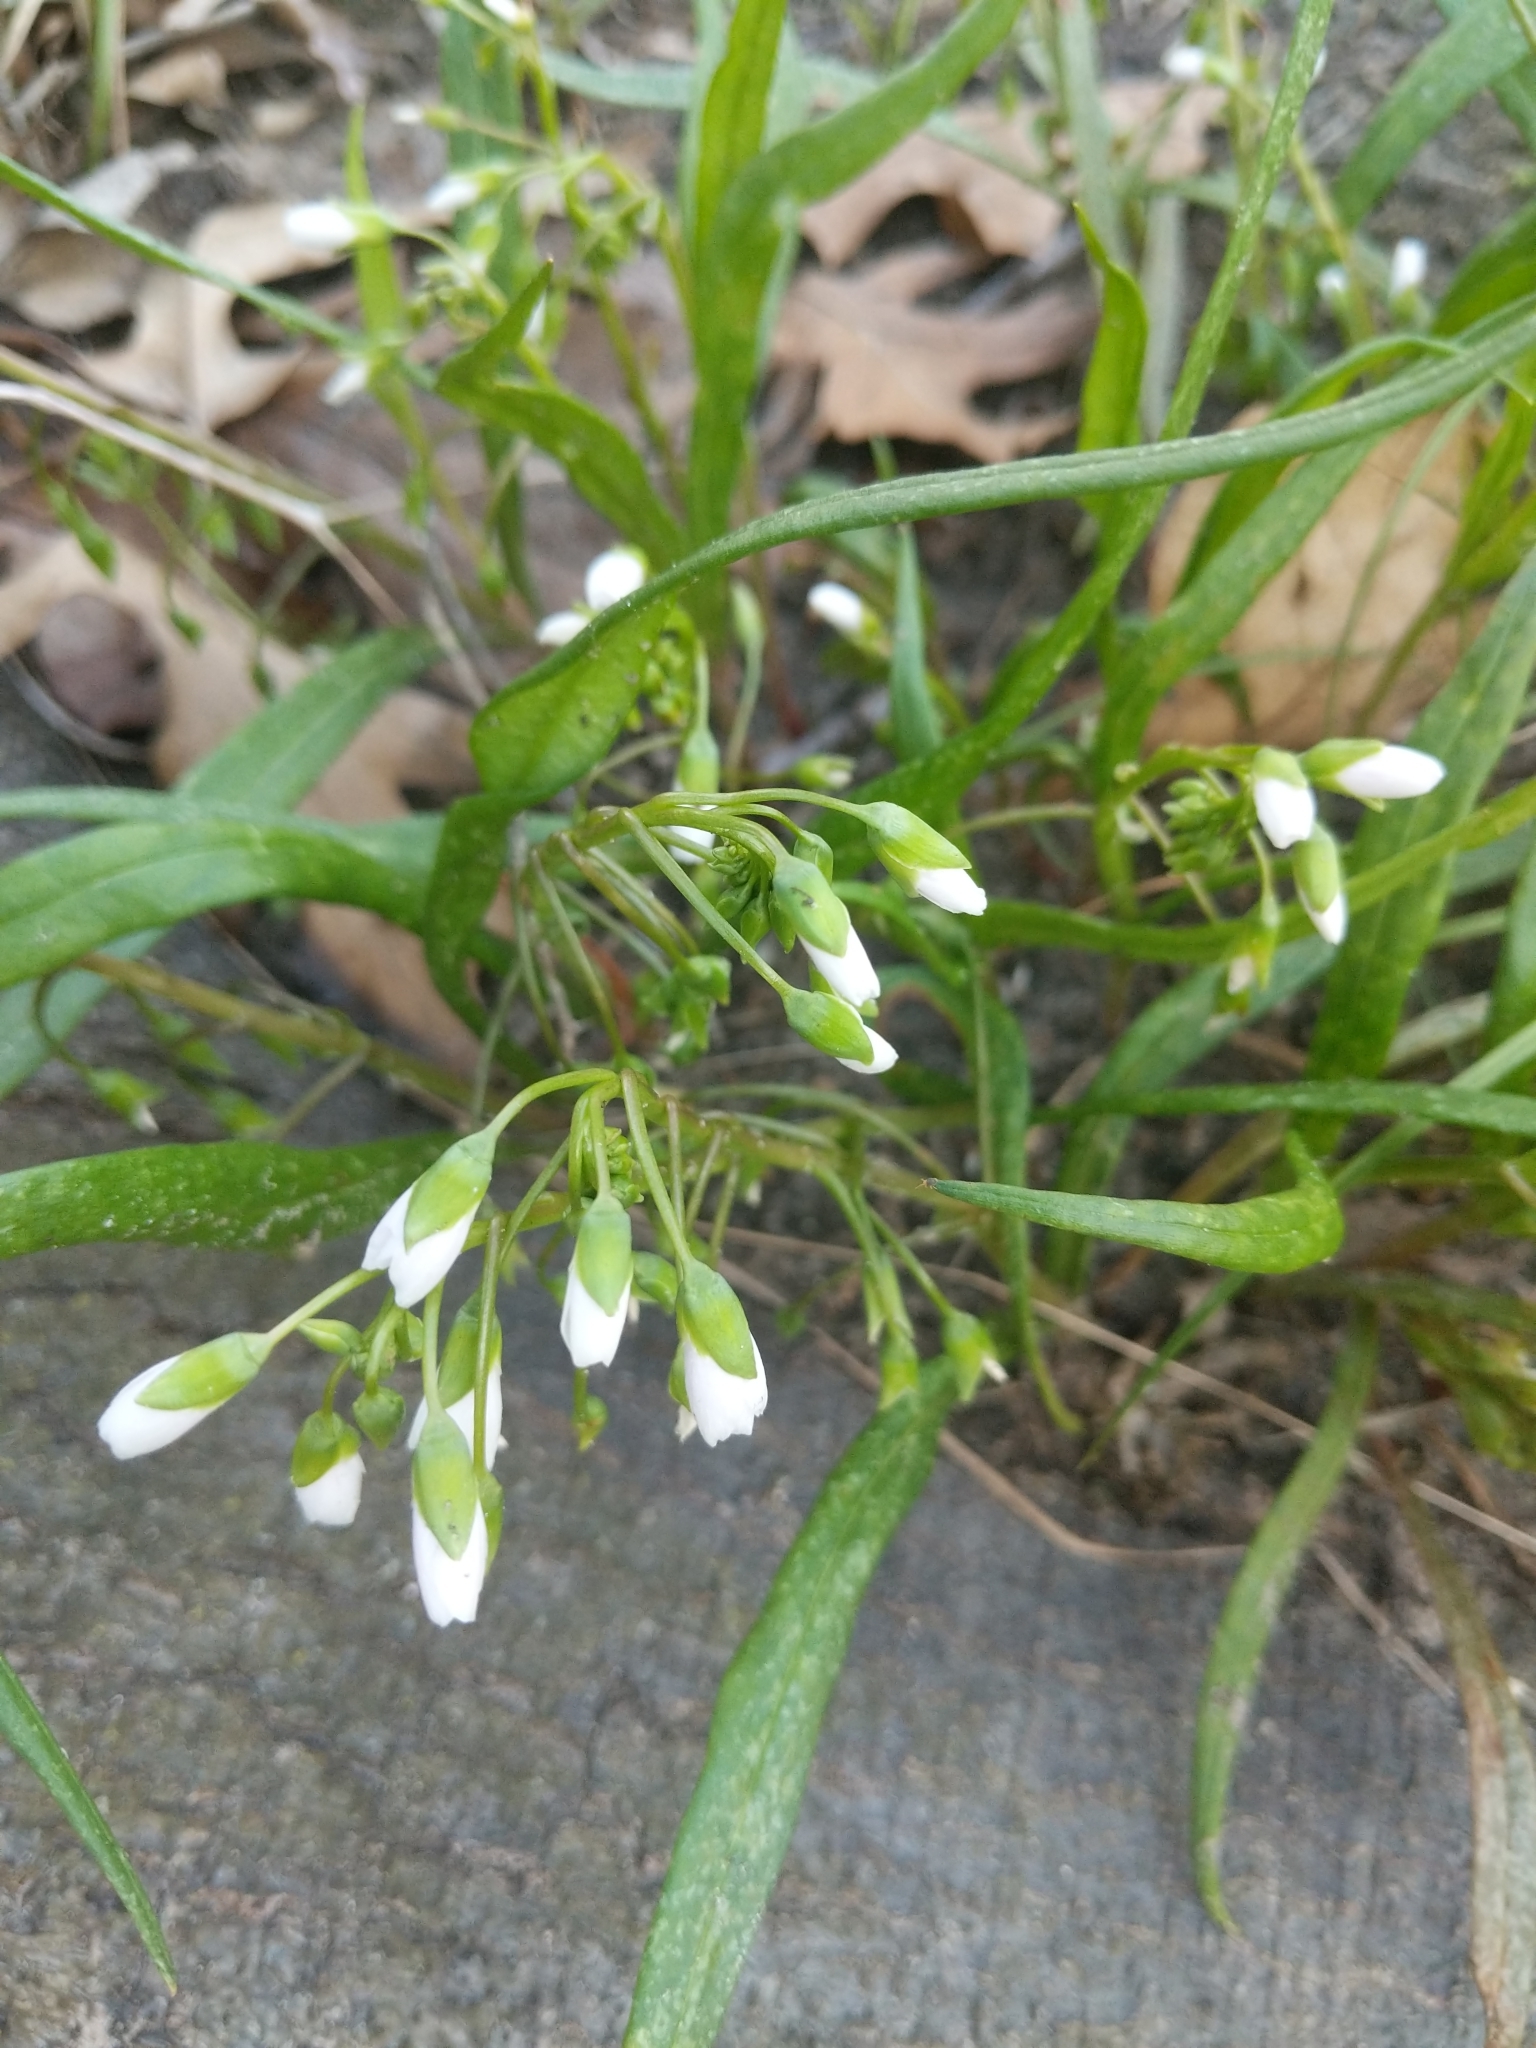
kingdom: Plantae
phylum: Tracheophyta
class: Magnoliopsida
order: Caryophyllales
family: Montiaceae
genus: Claytonia
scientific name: Claytonia virginica
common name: Virginia springbeauty
